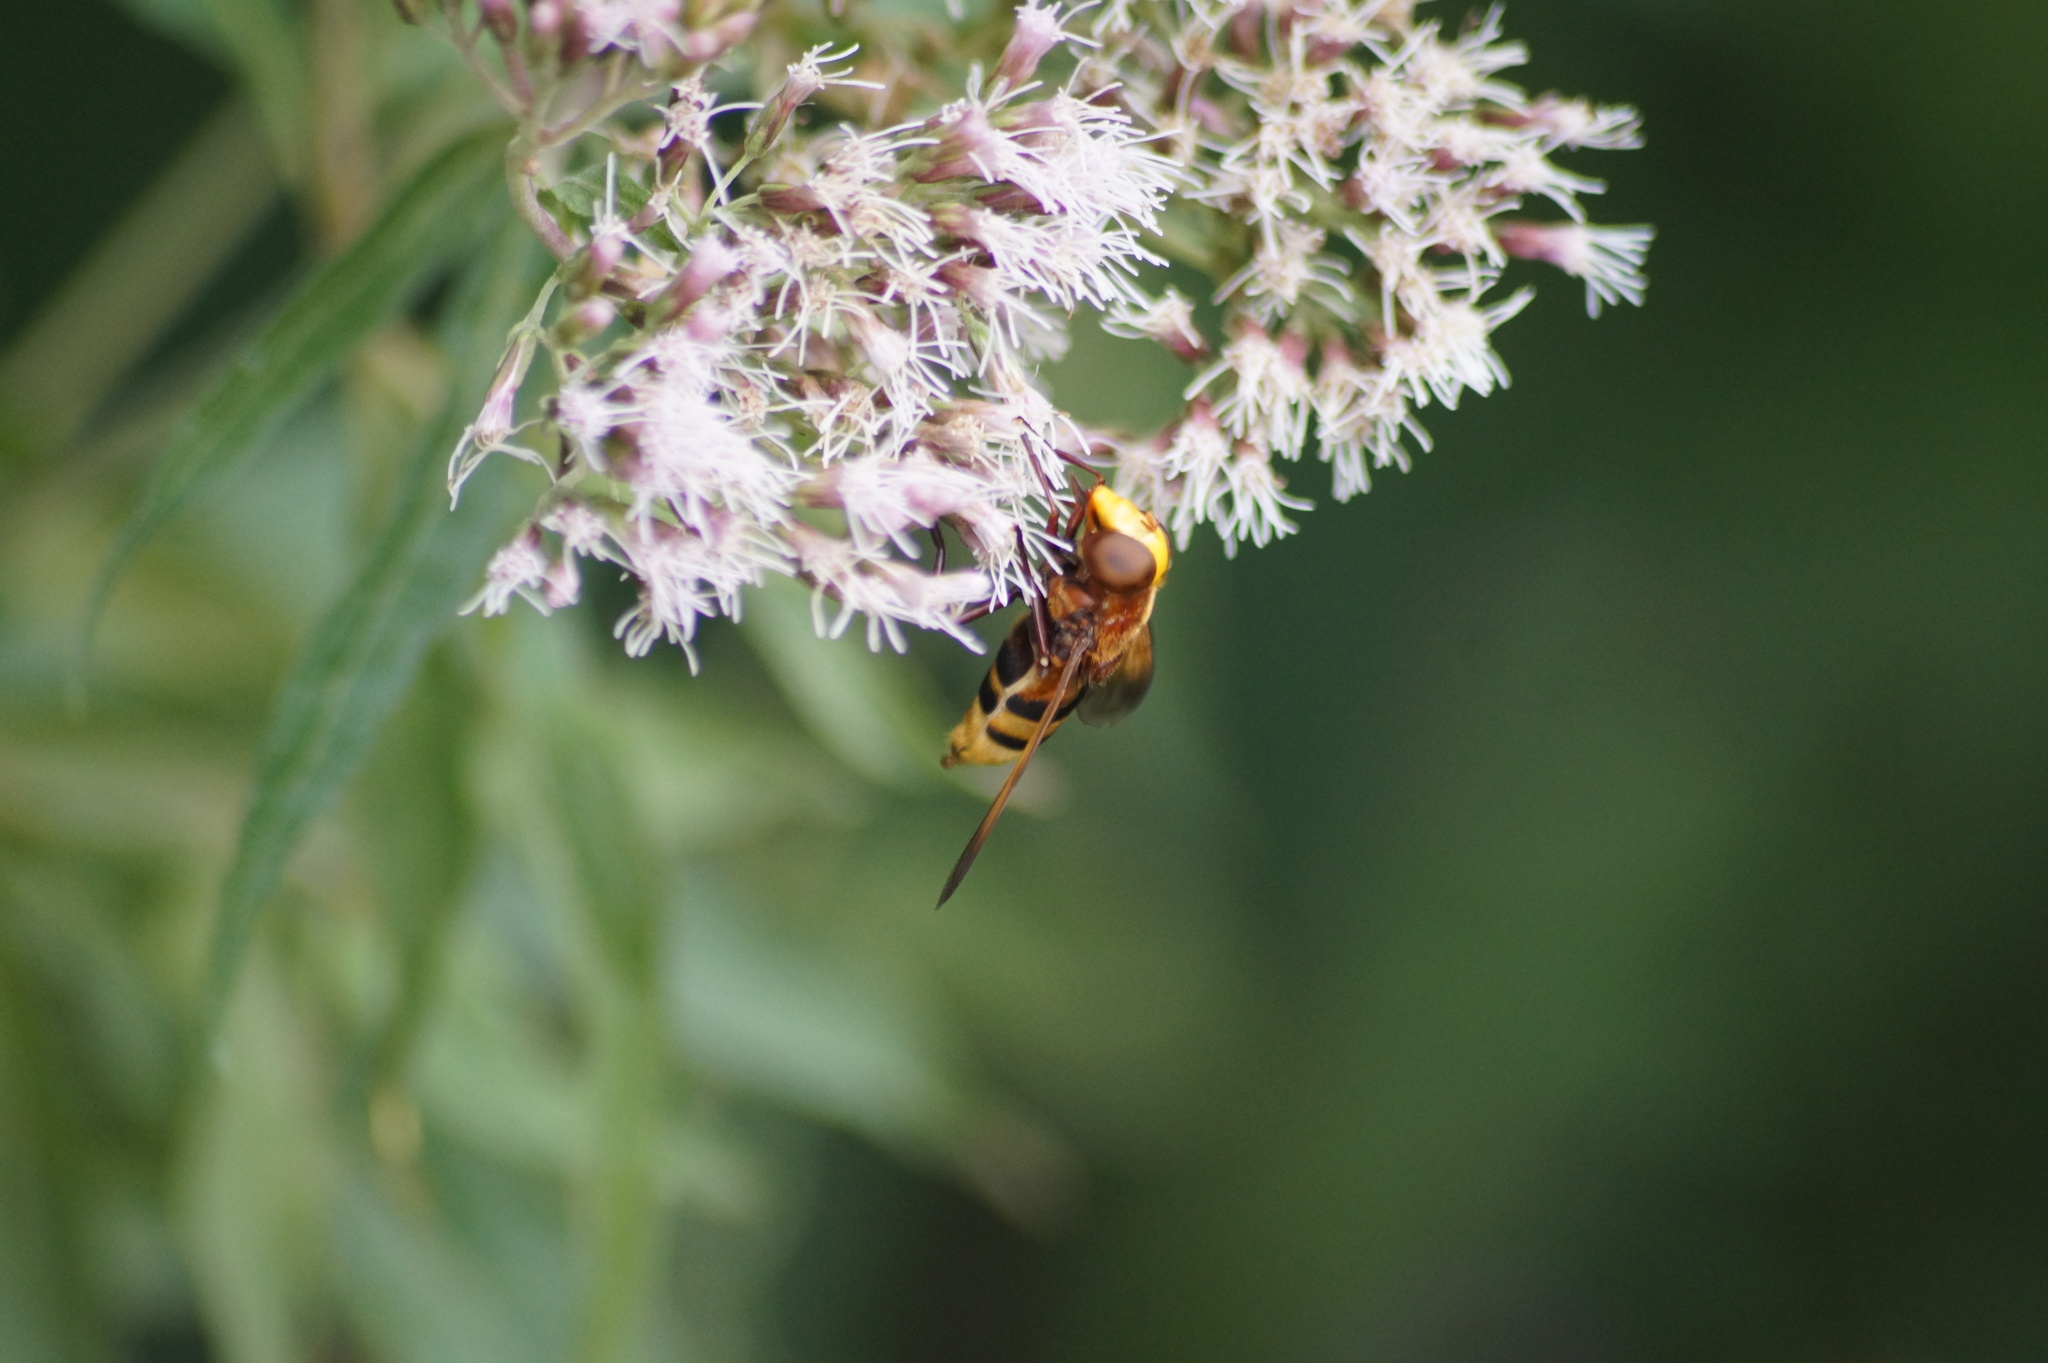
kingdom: Animalia
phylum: Arthropoda
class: Insecta
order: Diptera
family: Syrphidae
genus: Volucella
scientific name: Volucella zonaria
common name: Hornet hoverfly
